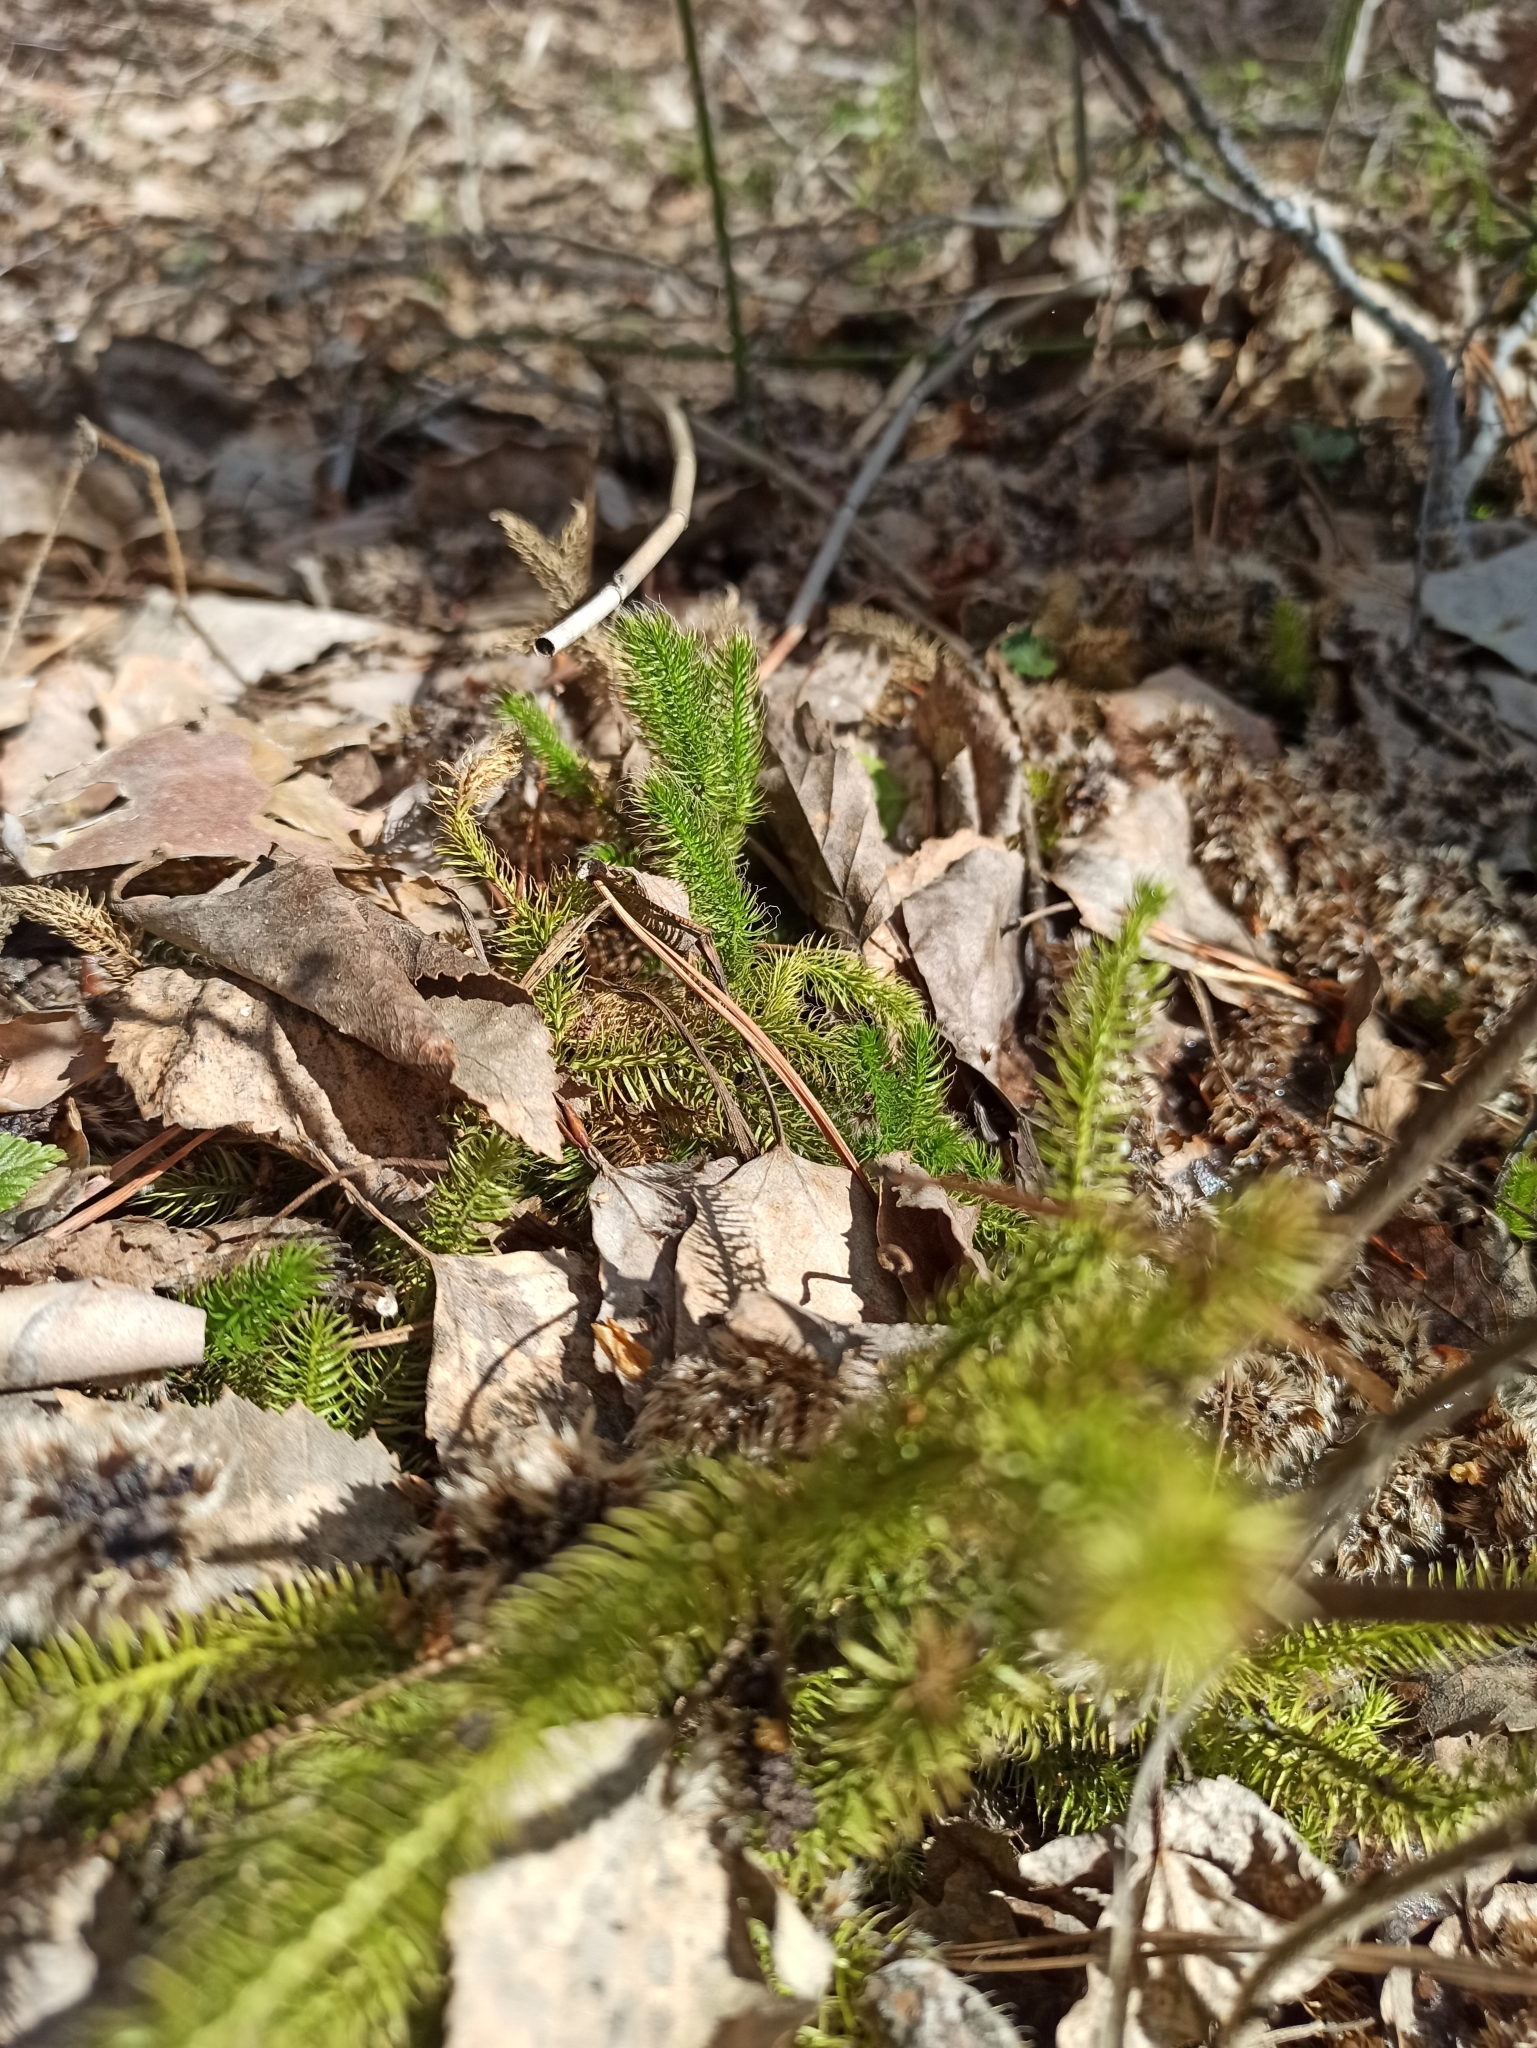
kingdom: Plantae
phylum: Tracheophyta
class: Lycopodiopsida
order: Lycopodiales
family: Lycopodiaceae
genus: Lycopodium
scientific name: Lycopodium clavatum
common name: Stag's-horn clubmoss
